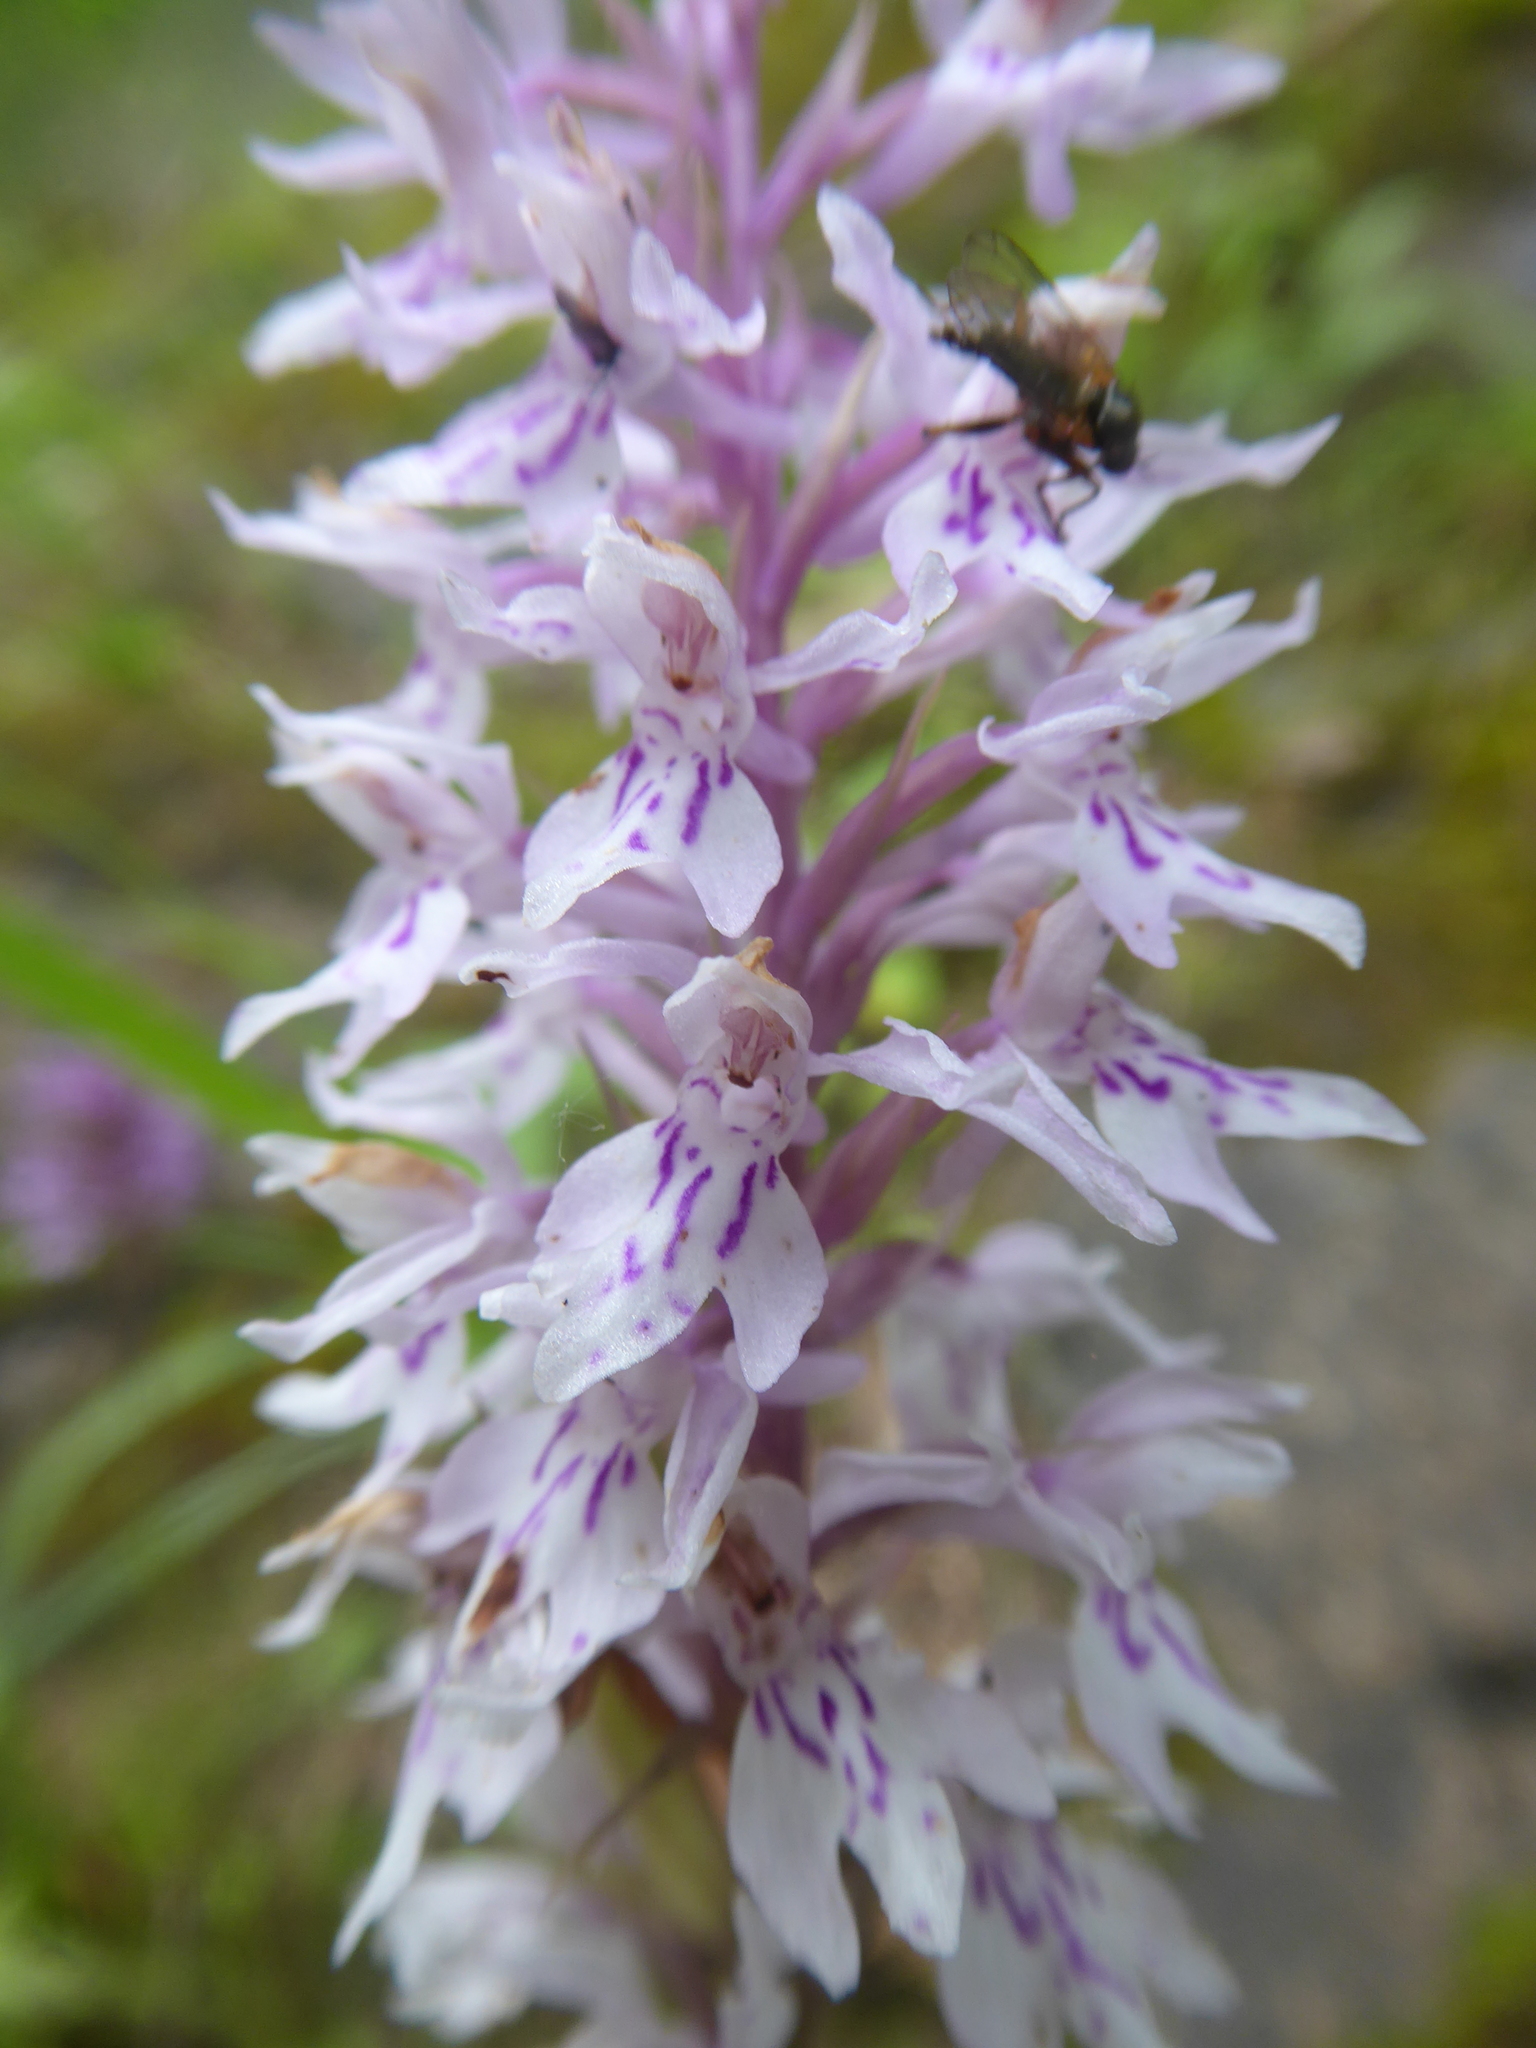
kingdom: Plantae
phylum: Tracheophyta
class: Liliopsida
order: Asparagales
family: Orchidaceae
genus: Dactylorhiza
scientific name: Dactylorhiza maculata
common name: Heath spotted-orchid
